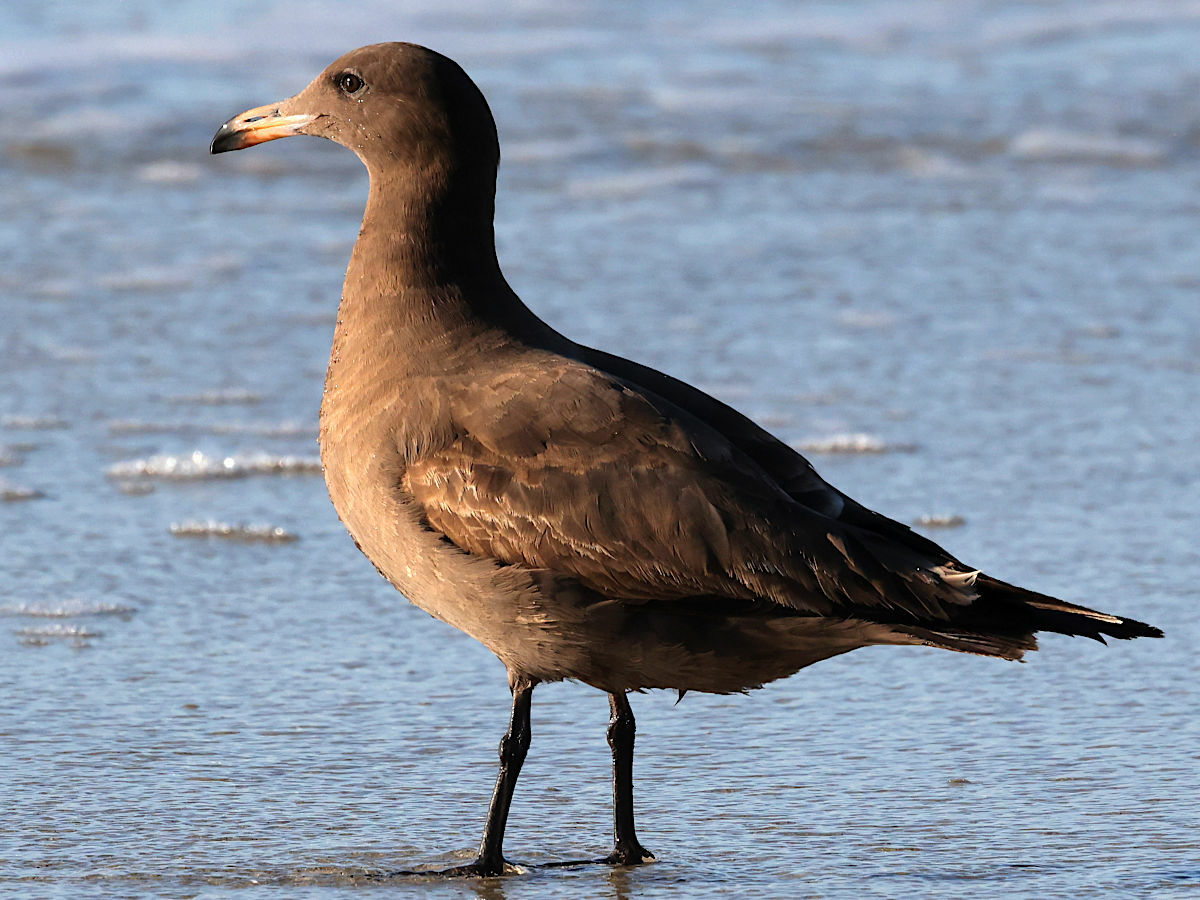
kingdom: Animalia
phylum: Chordata
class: Aves
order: Charadriiformes
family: Laridae
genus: Larus
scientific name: Larus heermanni
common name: Heermann's gull
